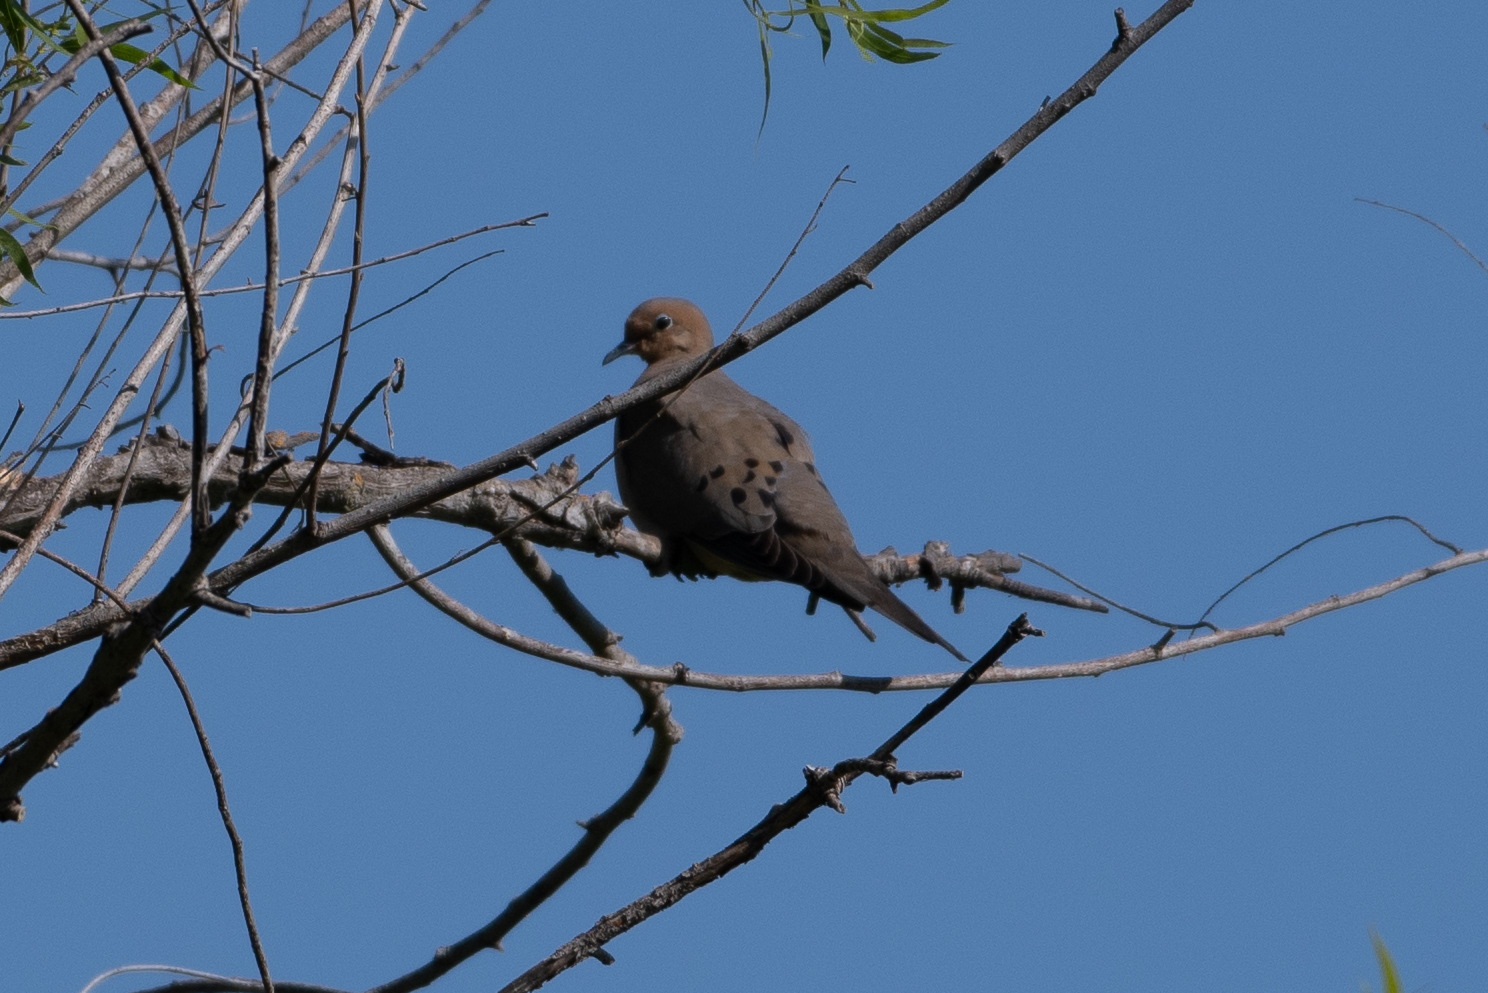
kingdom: Animalia
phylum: Chordata
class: Aves
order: Columbiformes
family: Columbidae
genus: Zenaida
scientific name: Zenaida macroura
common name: Mourning dove
